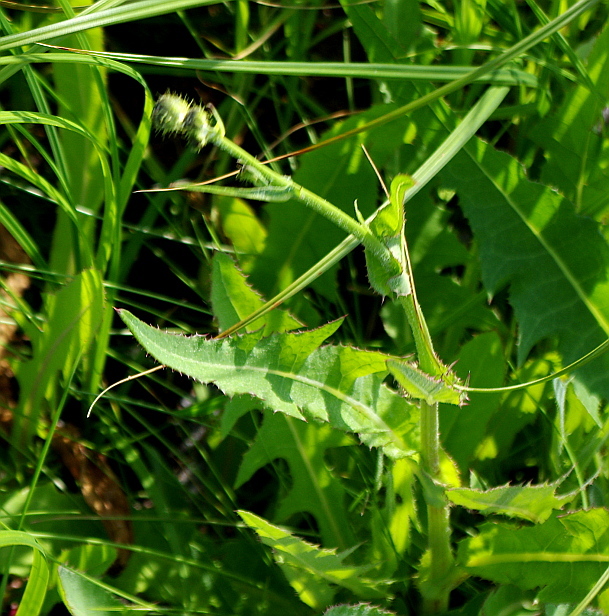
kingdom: Plantae
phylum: Tracheophyta
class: Magnoliopsida
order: Asterales
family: Asteraceae
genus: Sonchus
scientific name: Sonchus arvensis
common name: Perennial sow-thistle
